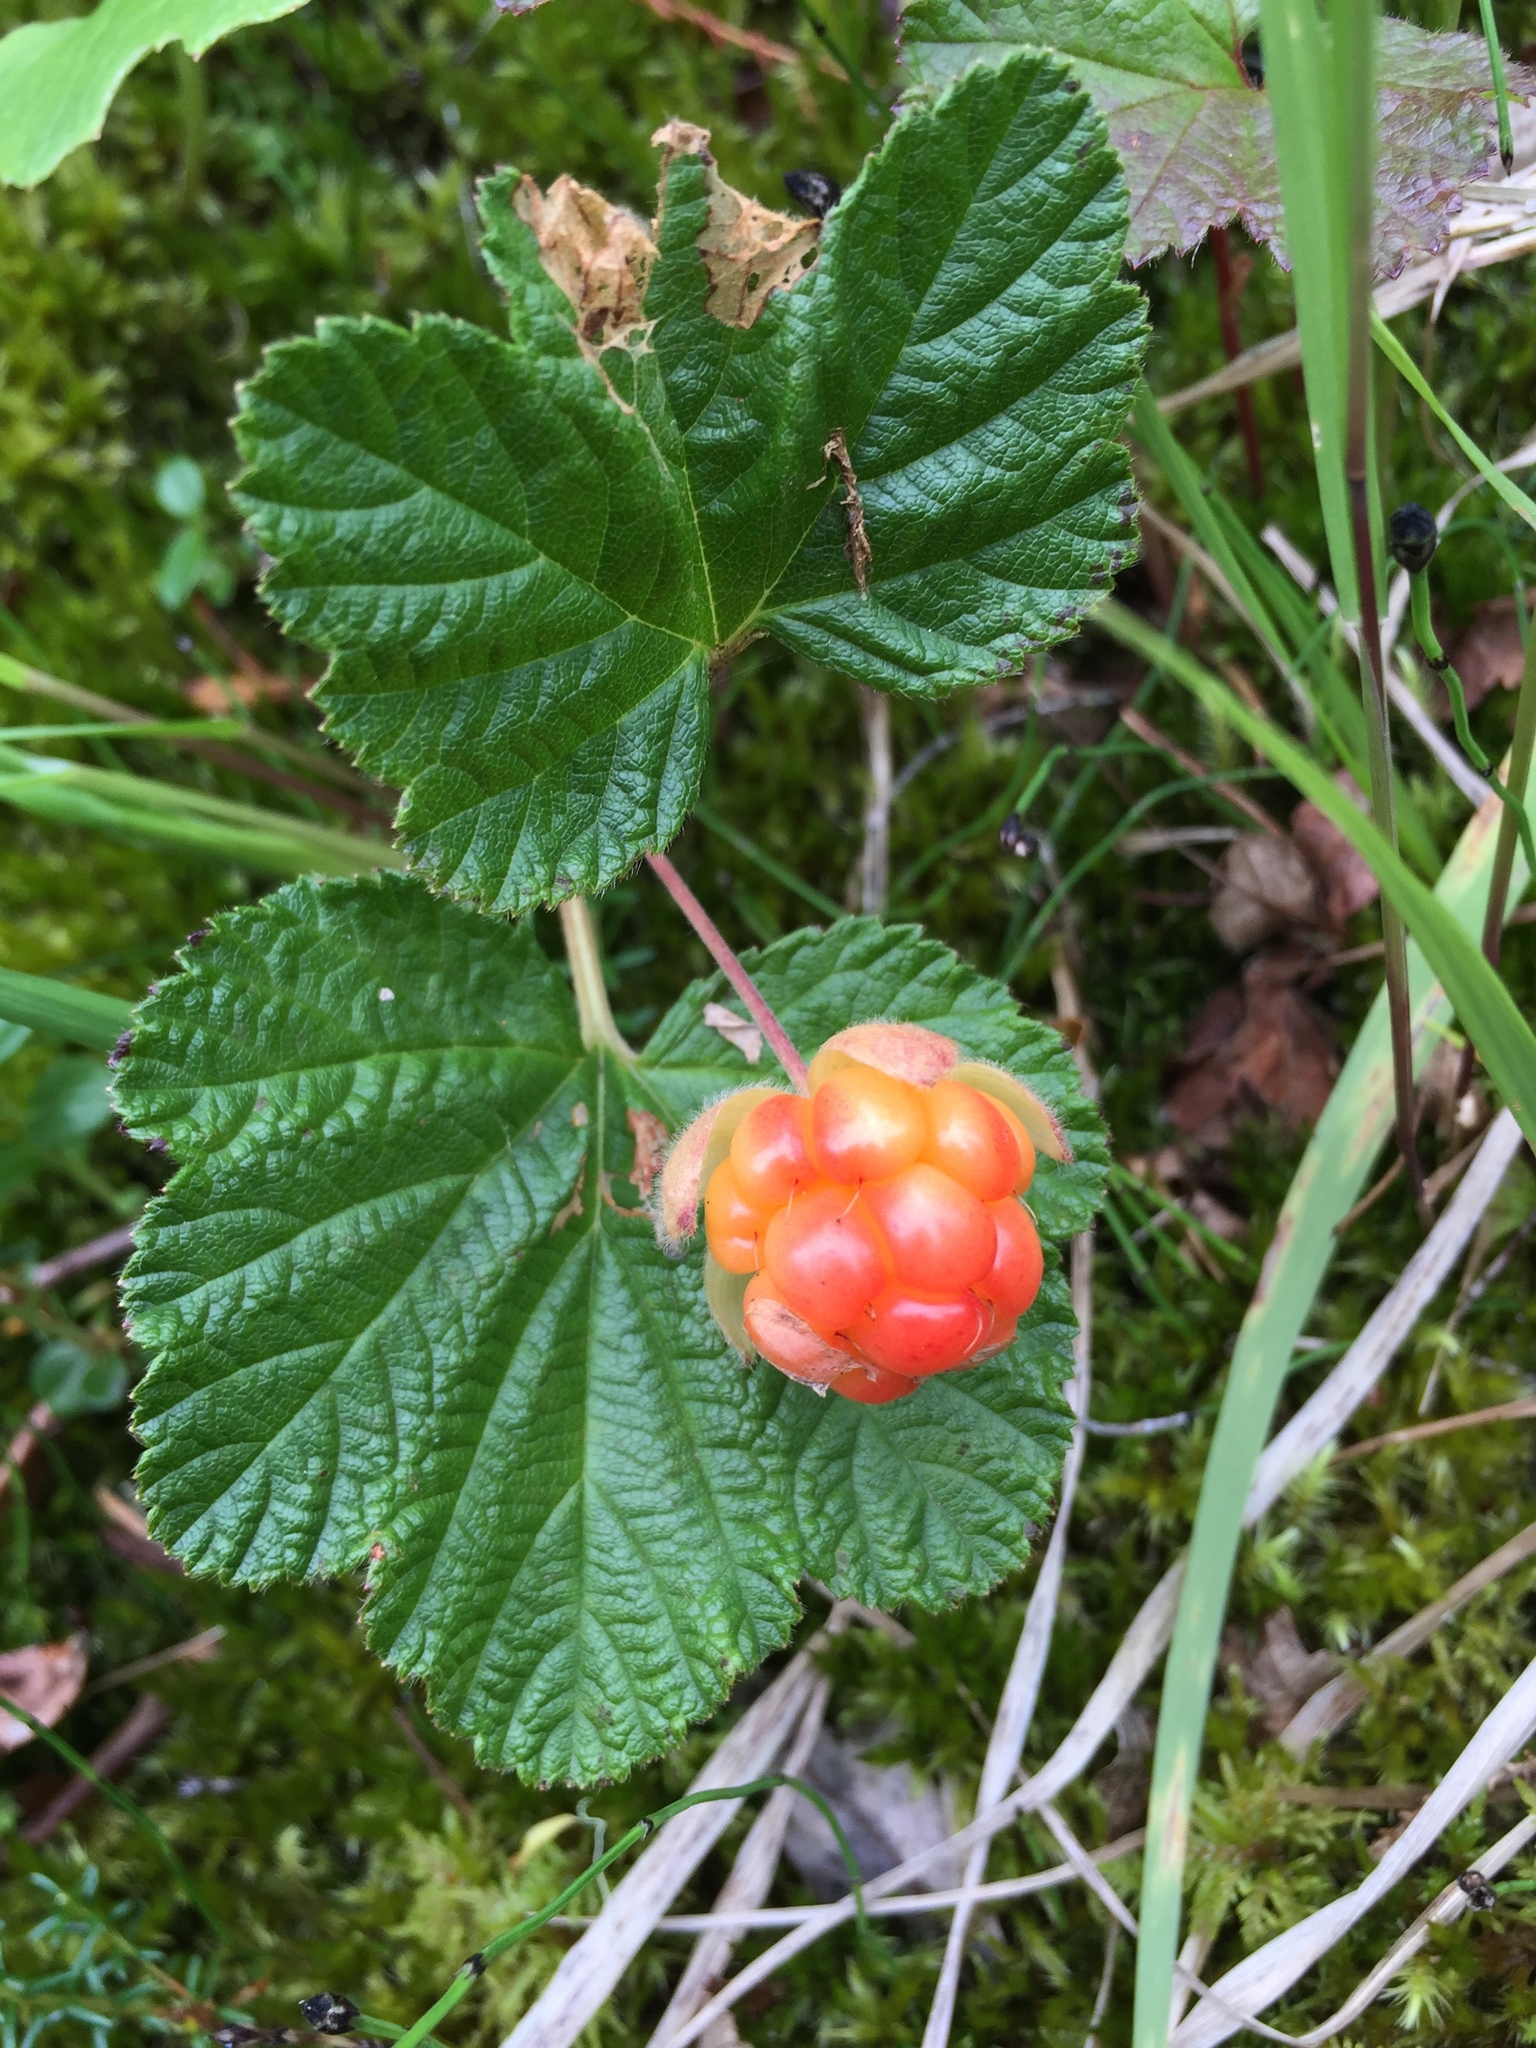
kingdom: Plantae
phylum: Tracheophyta
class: Magnoliopsida
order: Rosales
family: Rosaceae
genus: Rubus
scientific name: Rubus chamaemorus
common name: Cloudberry
